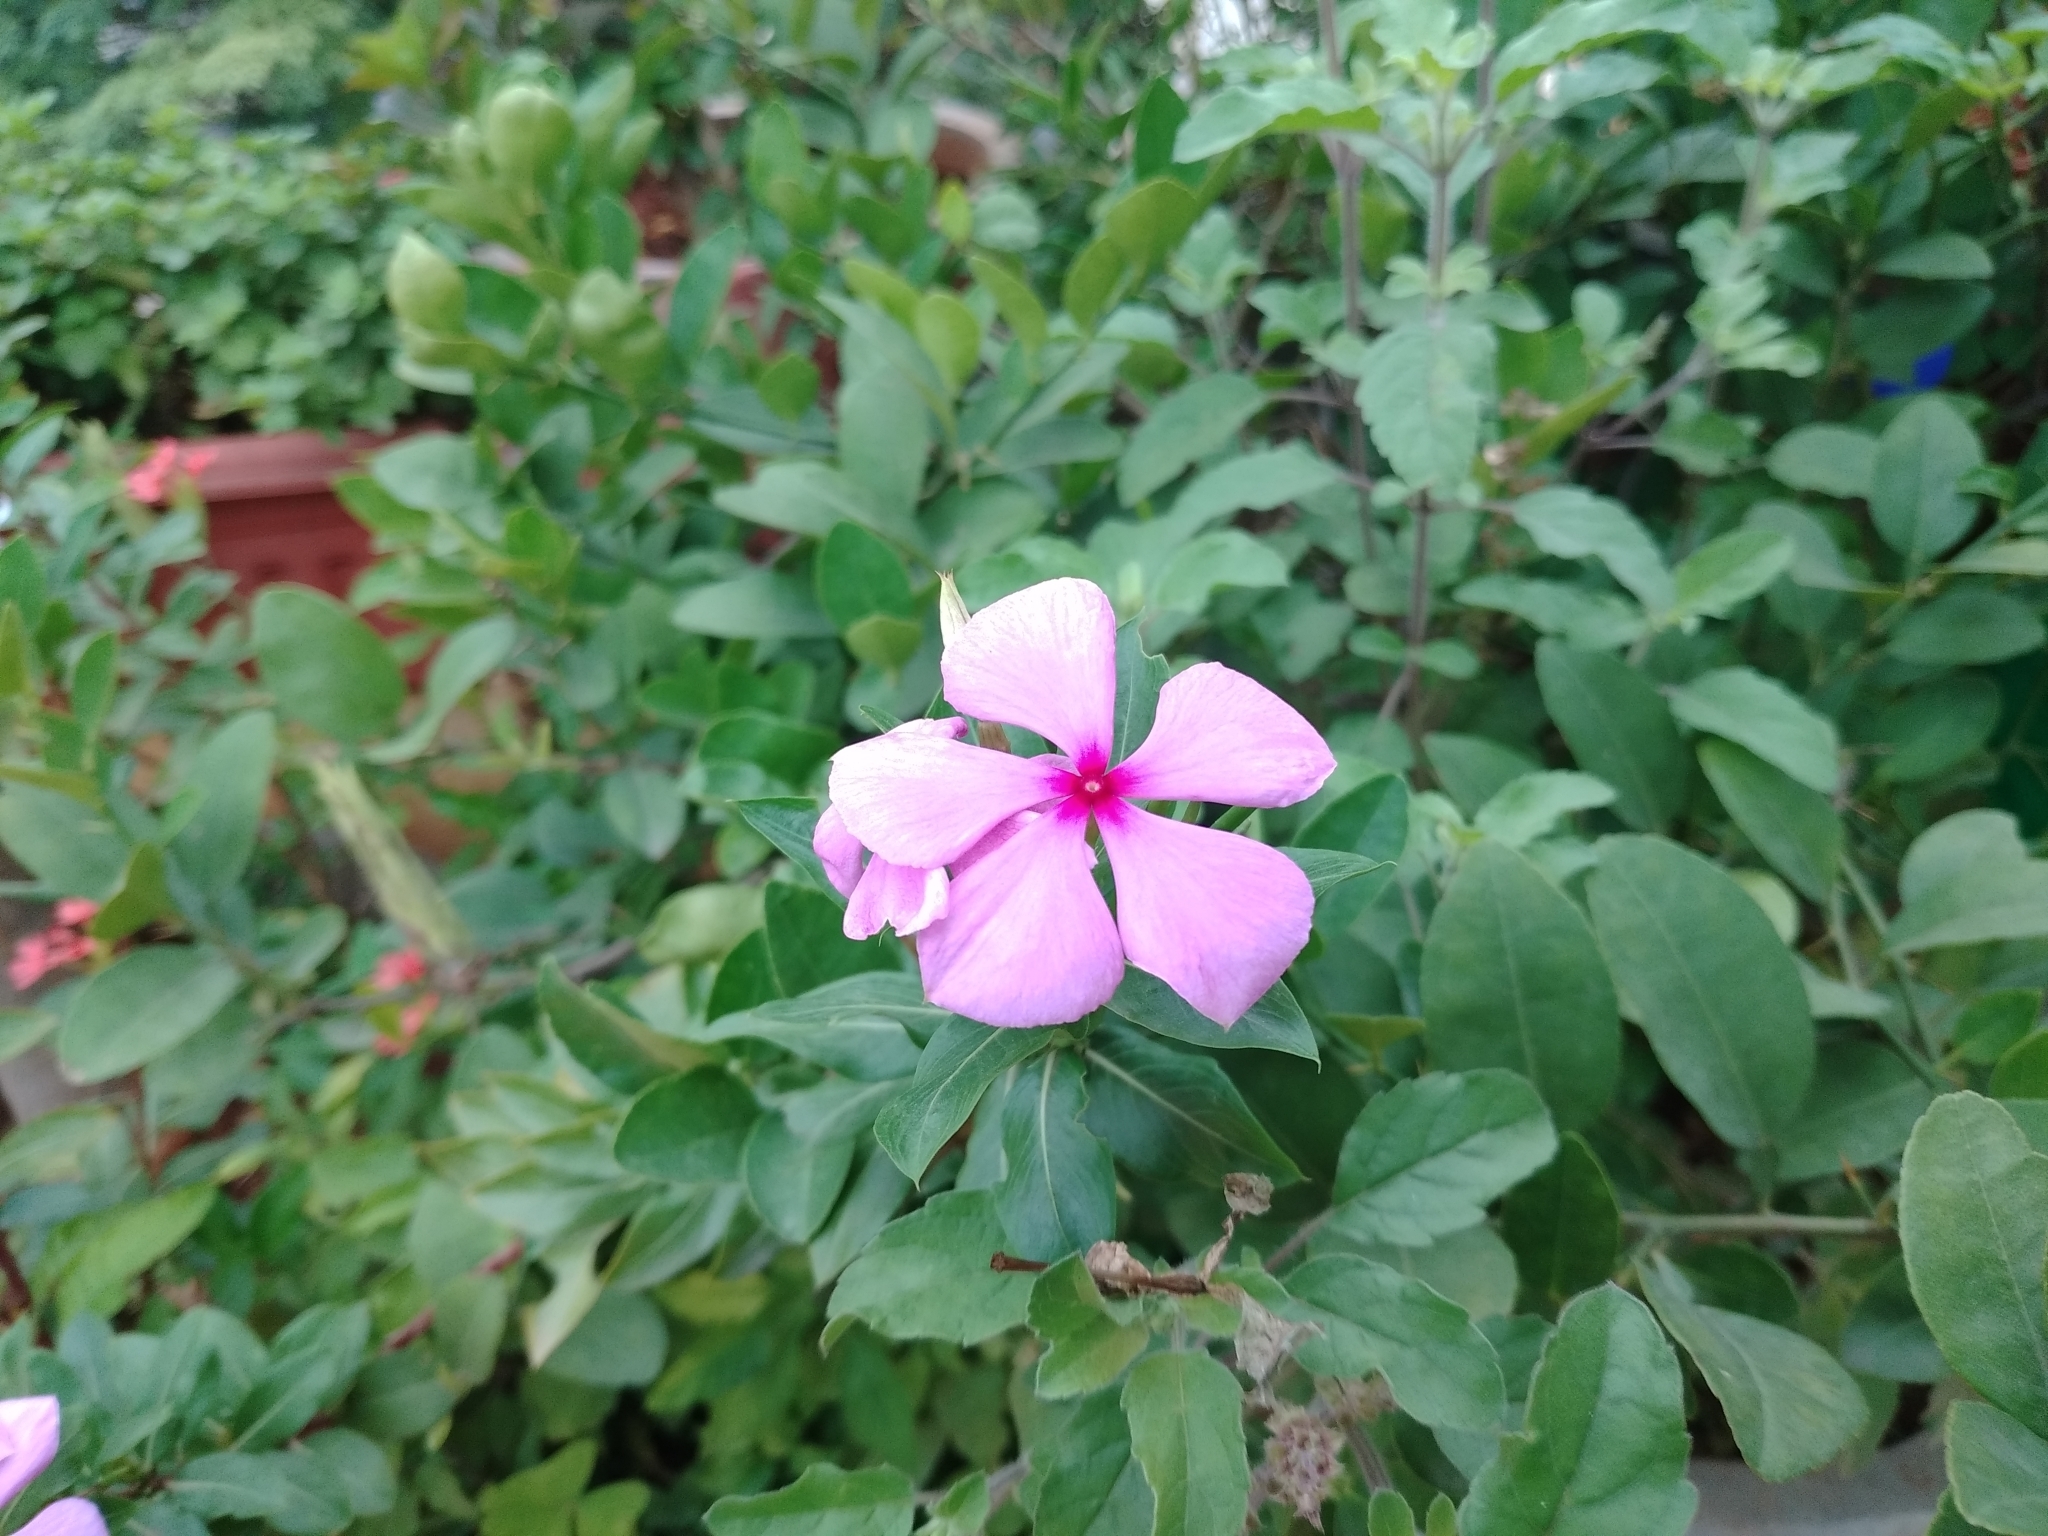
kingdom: Plantae
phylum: Tracheophyta
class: Magnoliopsida
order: Gentianales
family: Apocynaceae
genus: Catharanthus
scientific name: Catharanthus roseus
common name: Madagascar periwinkle
